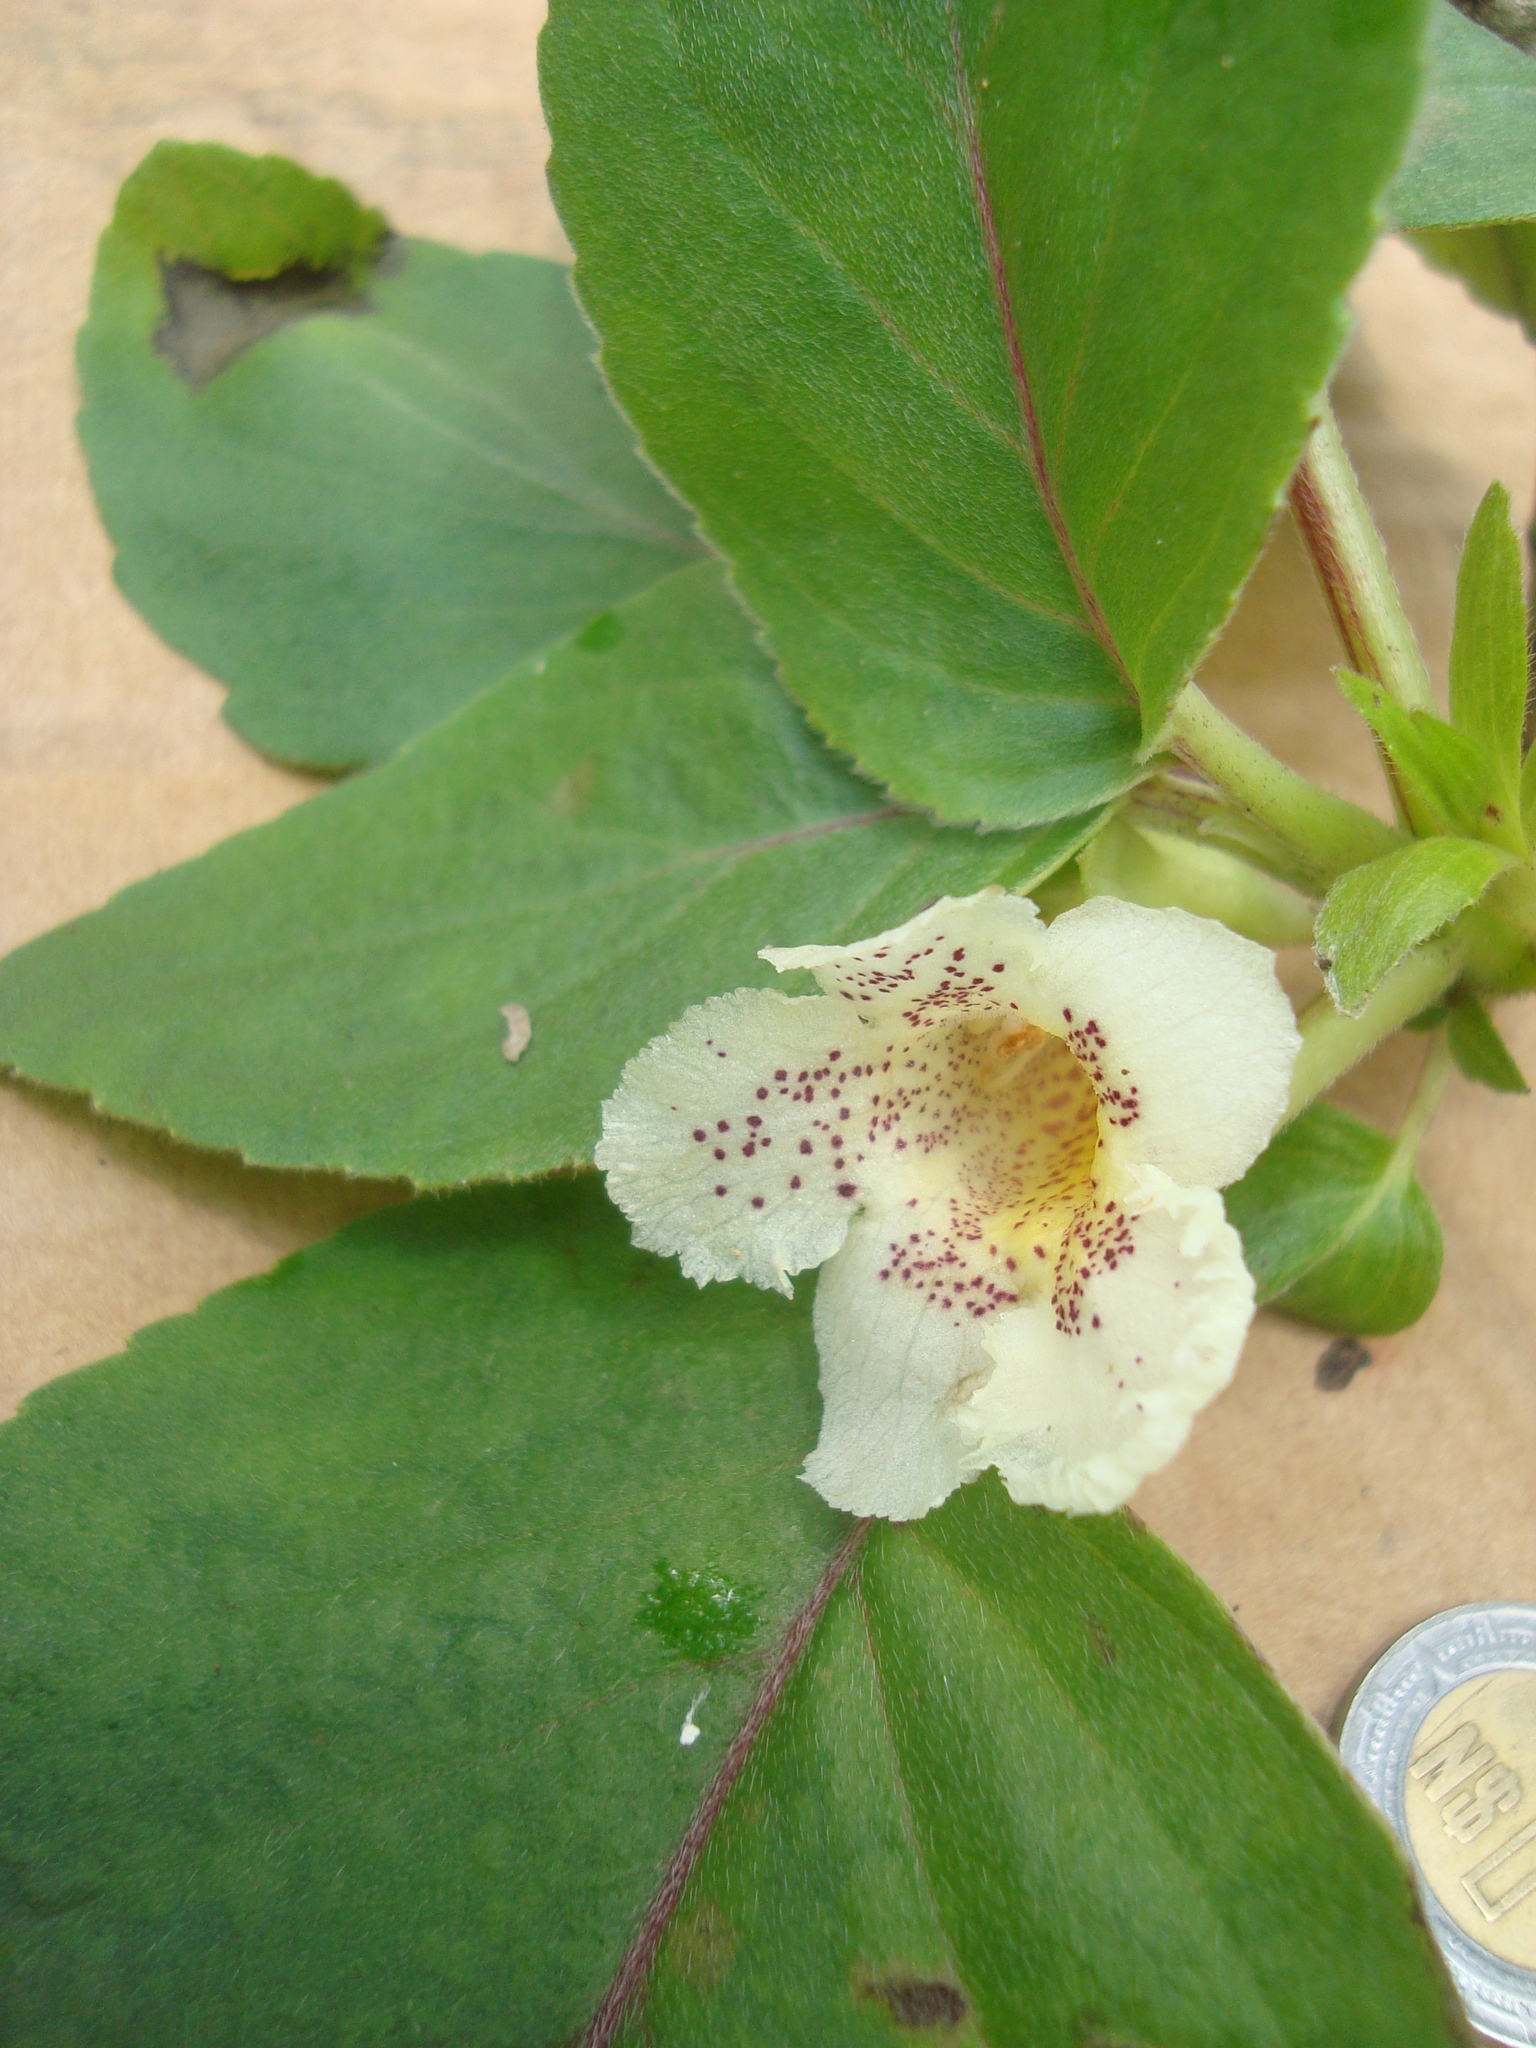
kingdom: Plantae
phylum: Tracheophyta
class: Magnoliopsida
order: Lamiales
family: Gesneriaceae
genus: Alsobia
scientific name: Alsobia punctata
